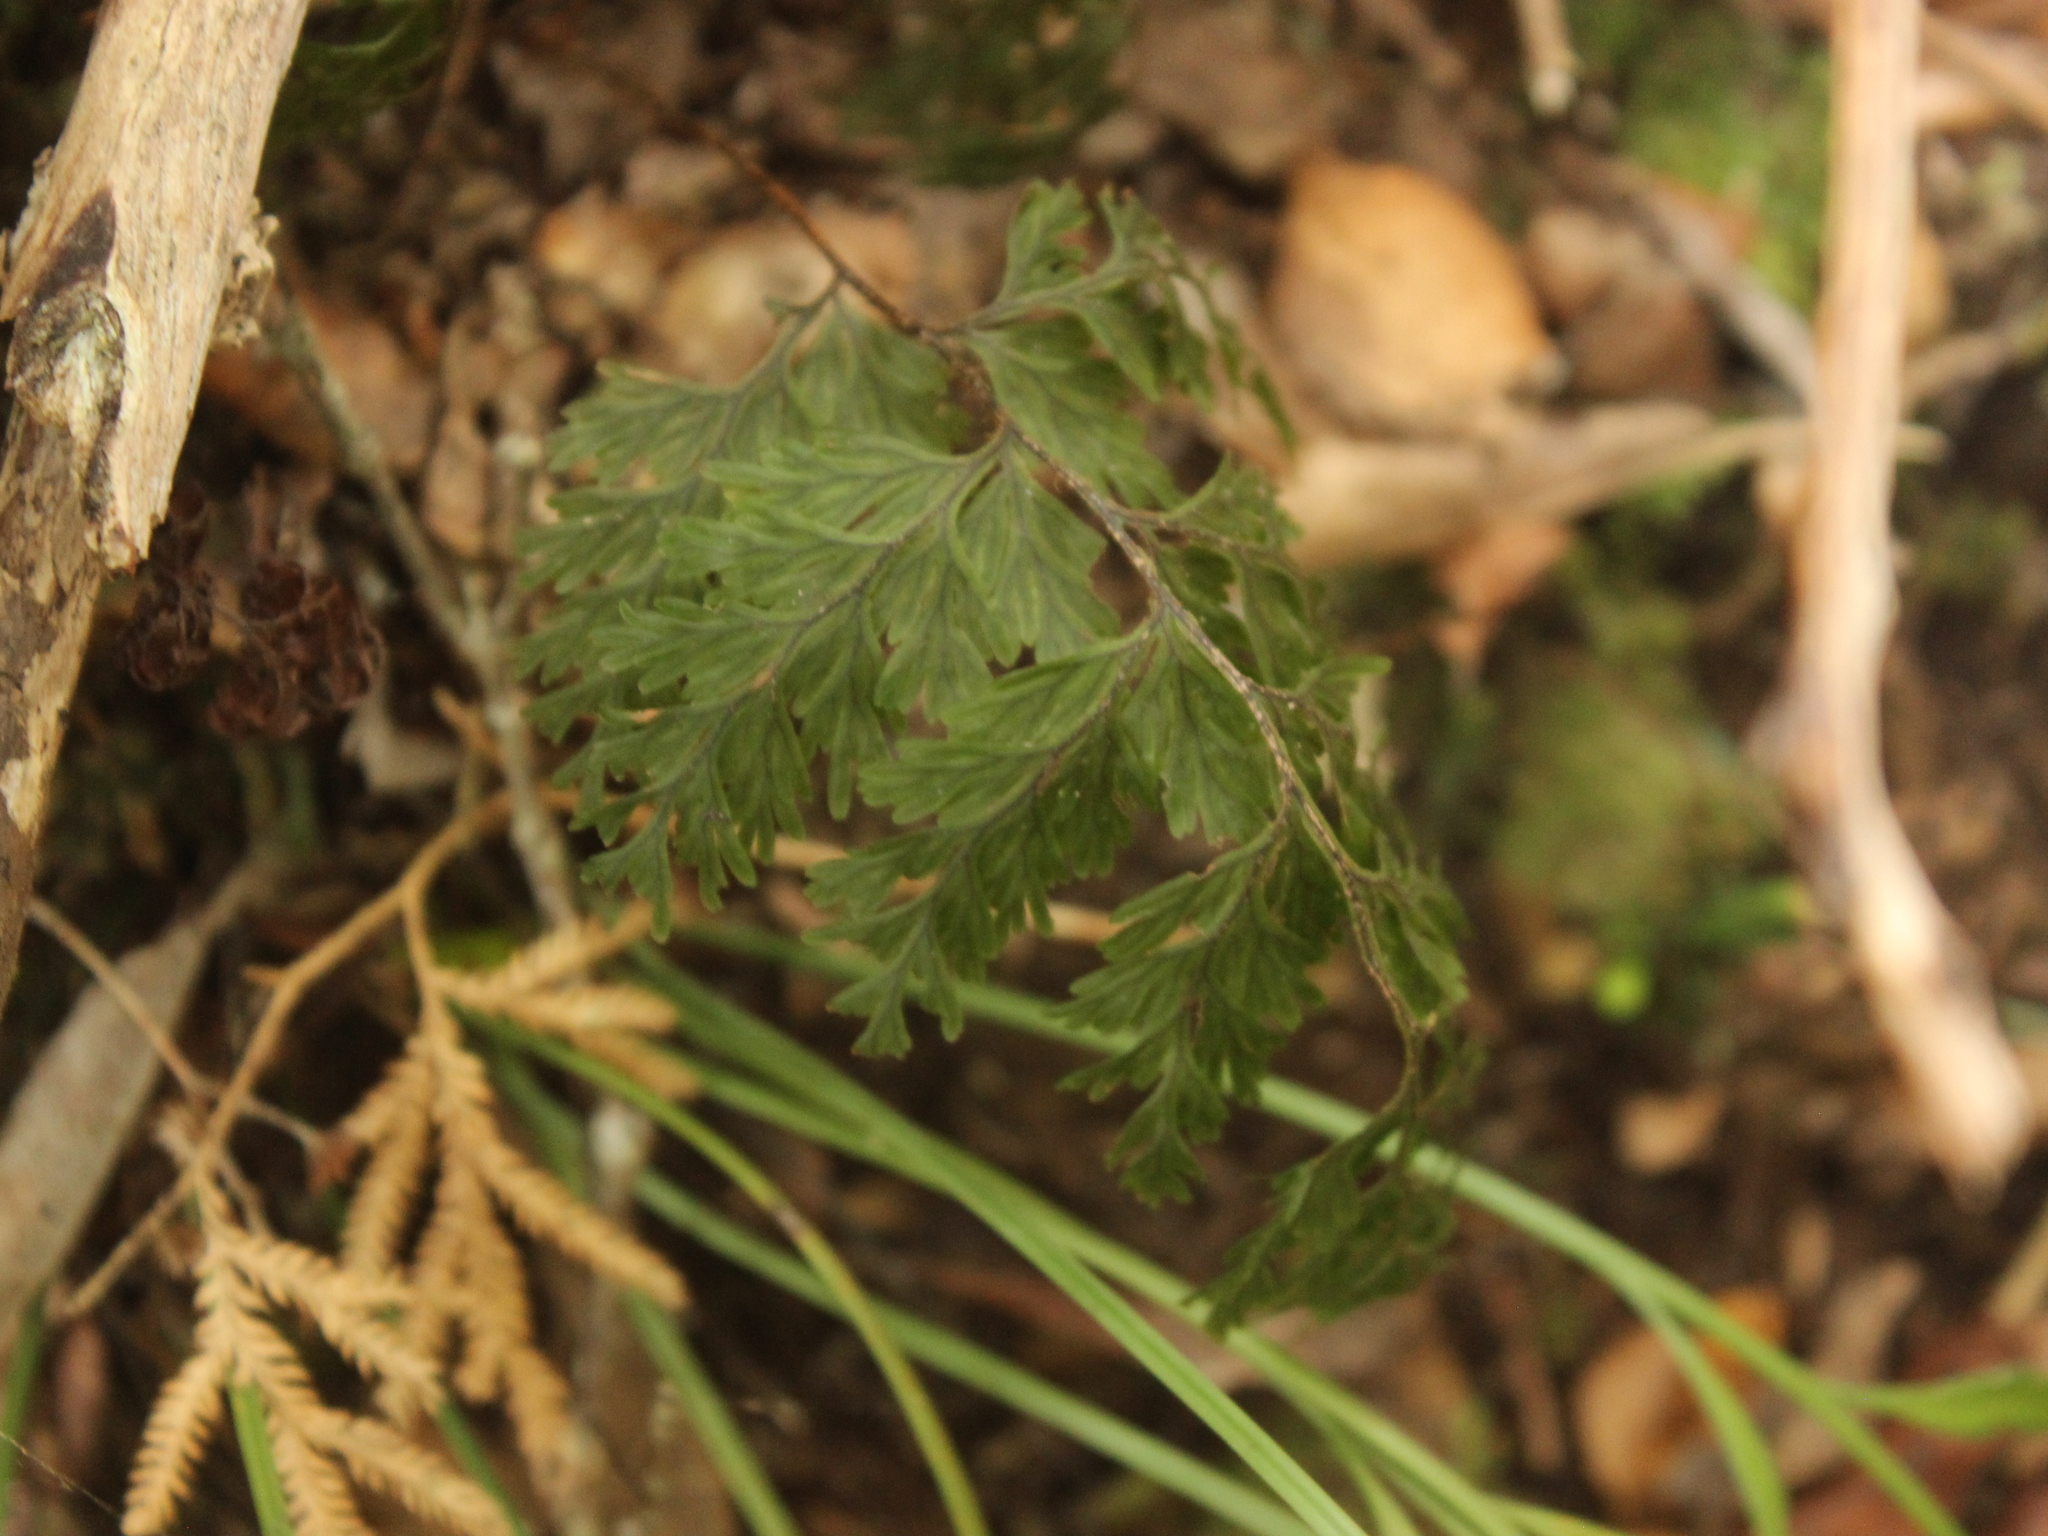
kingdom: Plantae
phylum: Tracheophyta
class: Polypodiopsida
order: Hymenophyllales
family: Hymenophyllaceae
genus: Hymenophyllum
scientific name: Hymenophyllum scabrum
